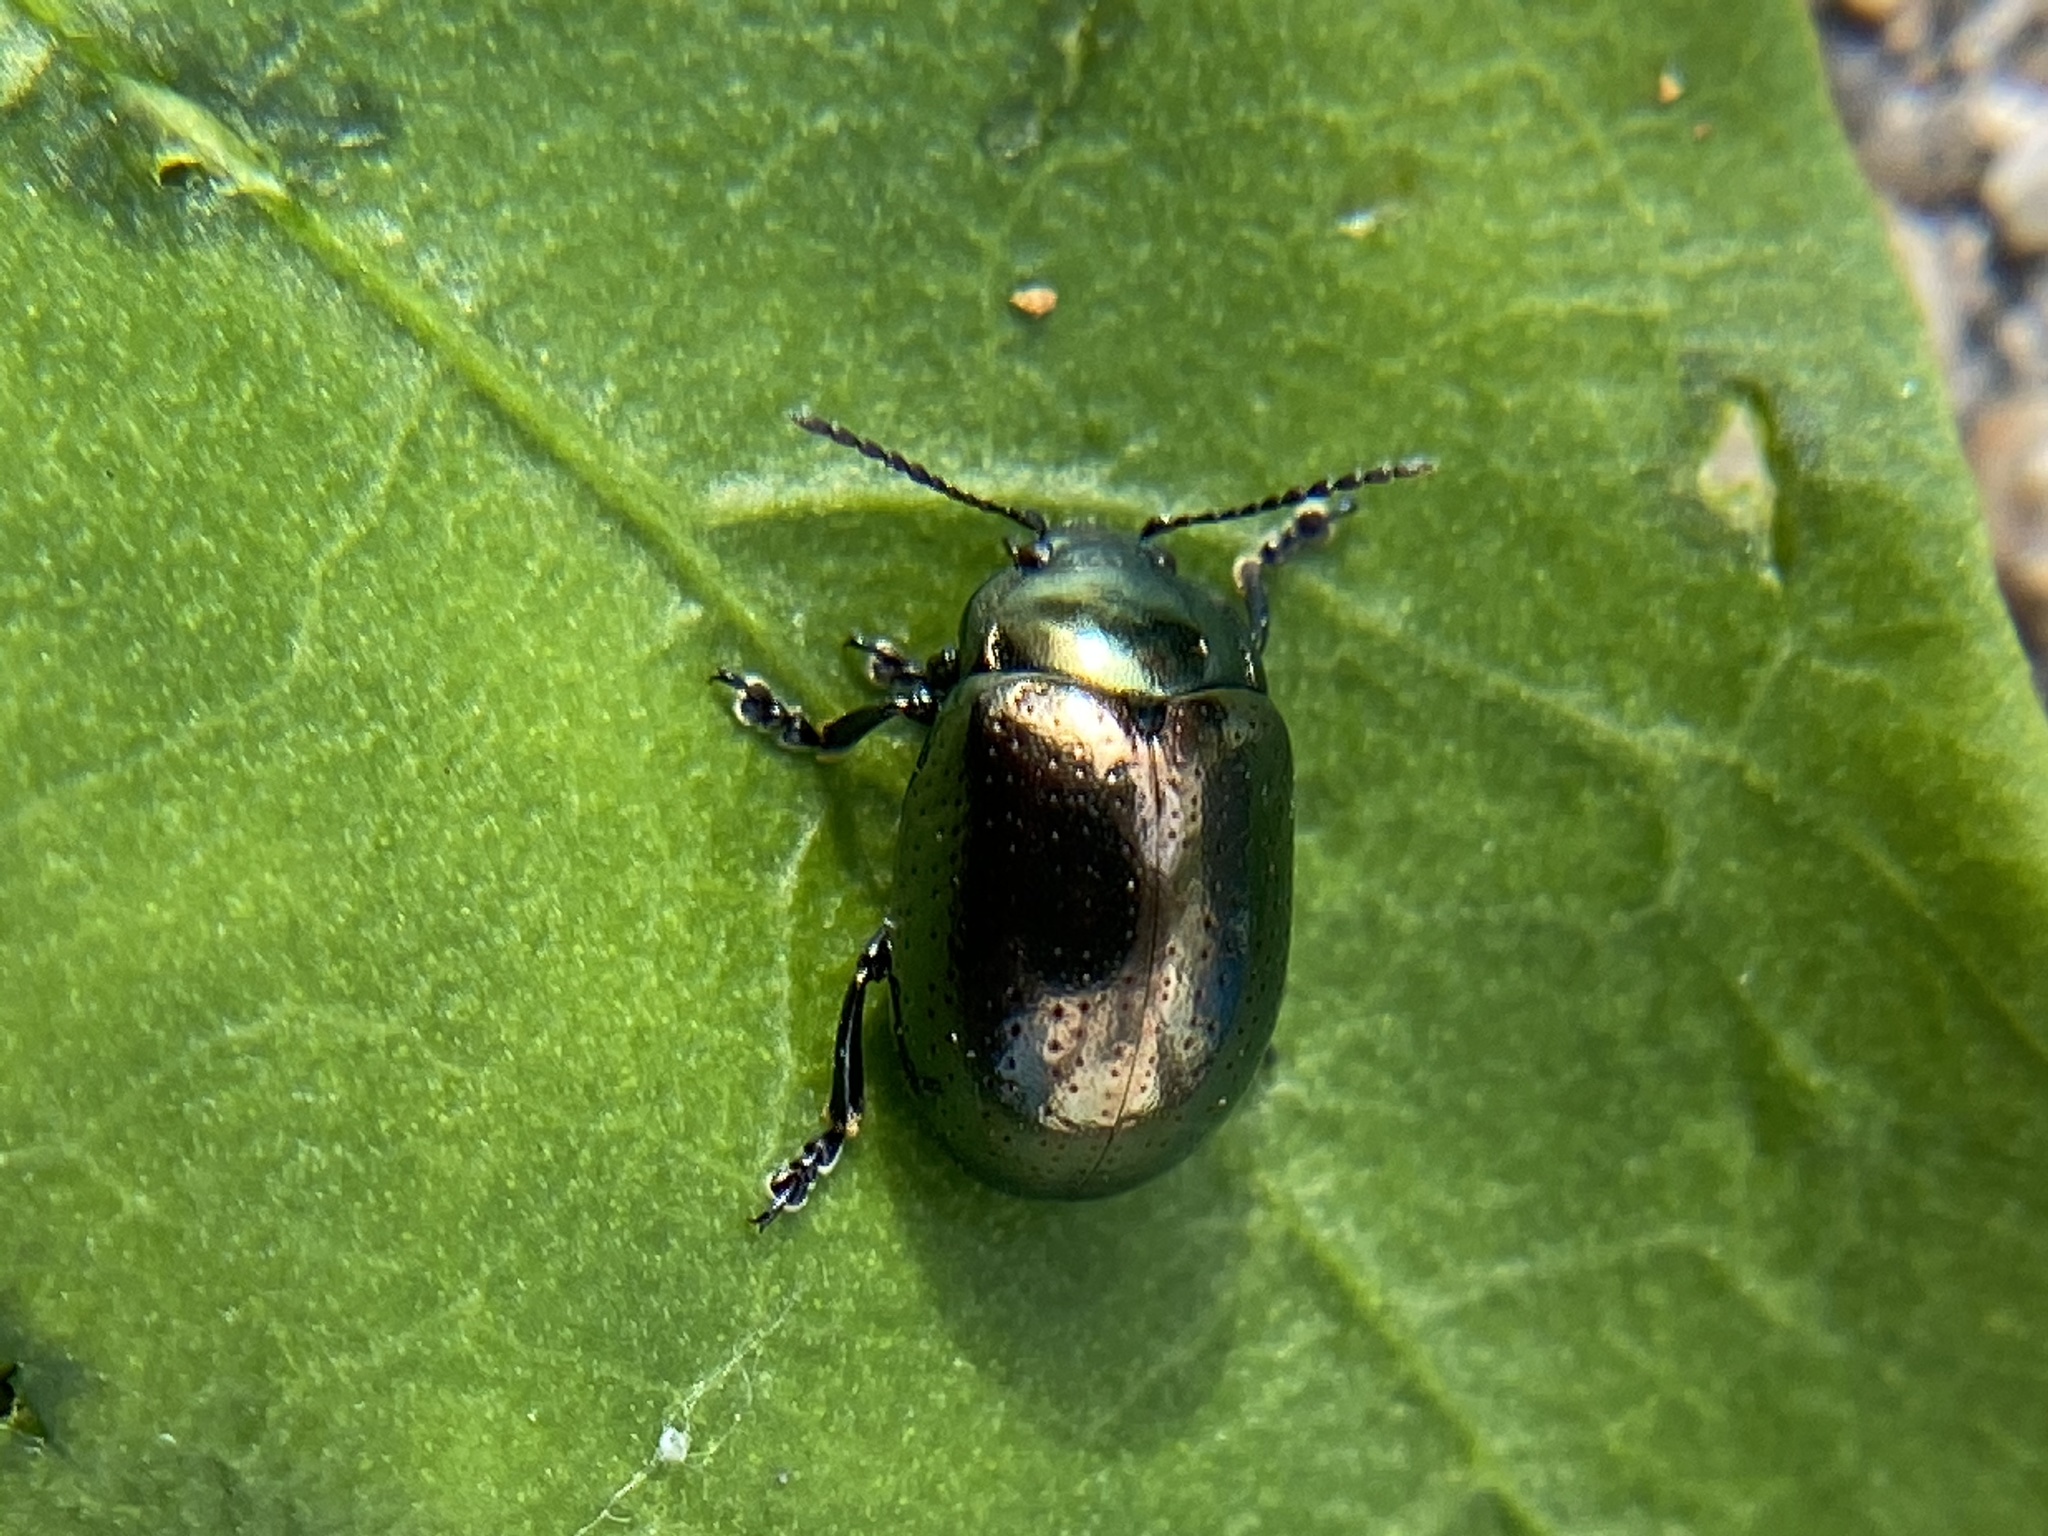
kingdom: Animalia
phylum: Arthropoda
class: Insecta
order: Coleoptera
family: Chrysomelidae
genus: Chrysolina
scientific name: Chrysolina hyperici
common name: St. johnswort beetle
